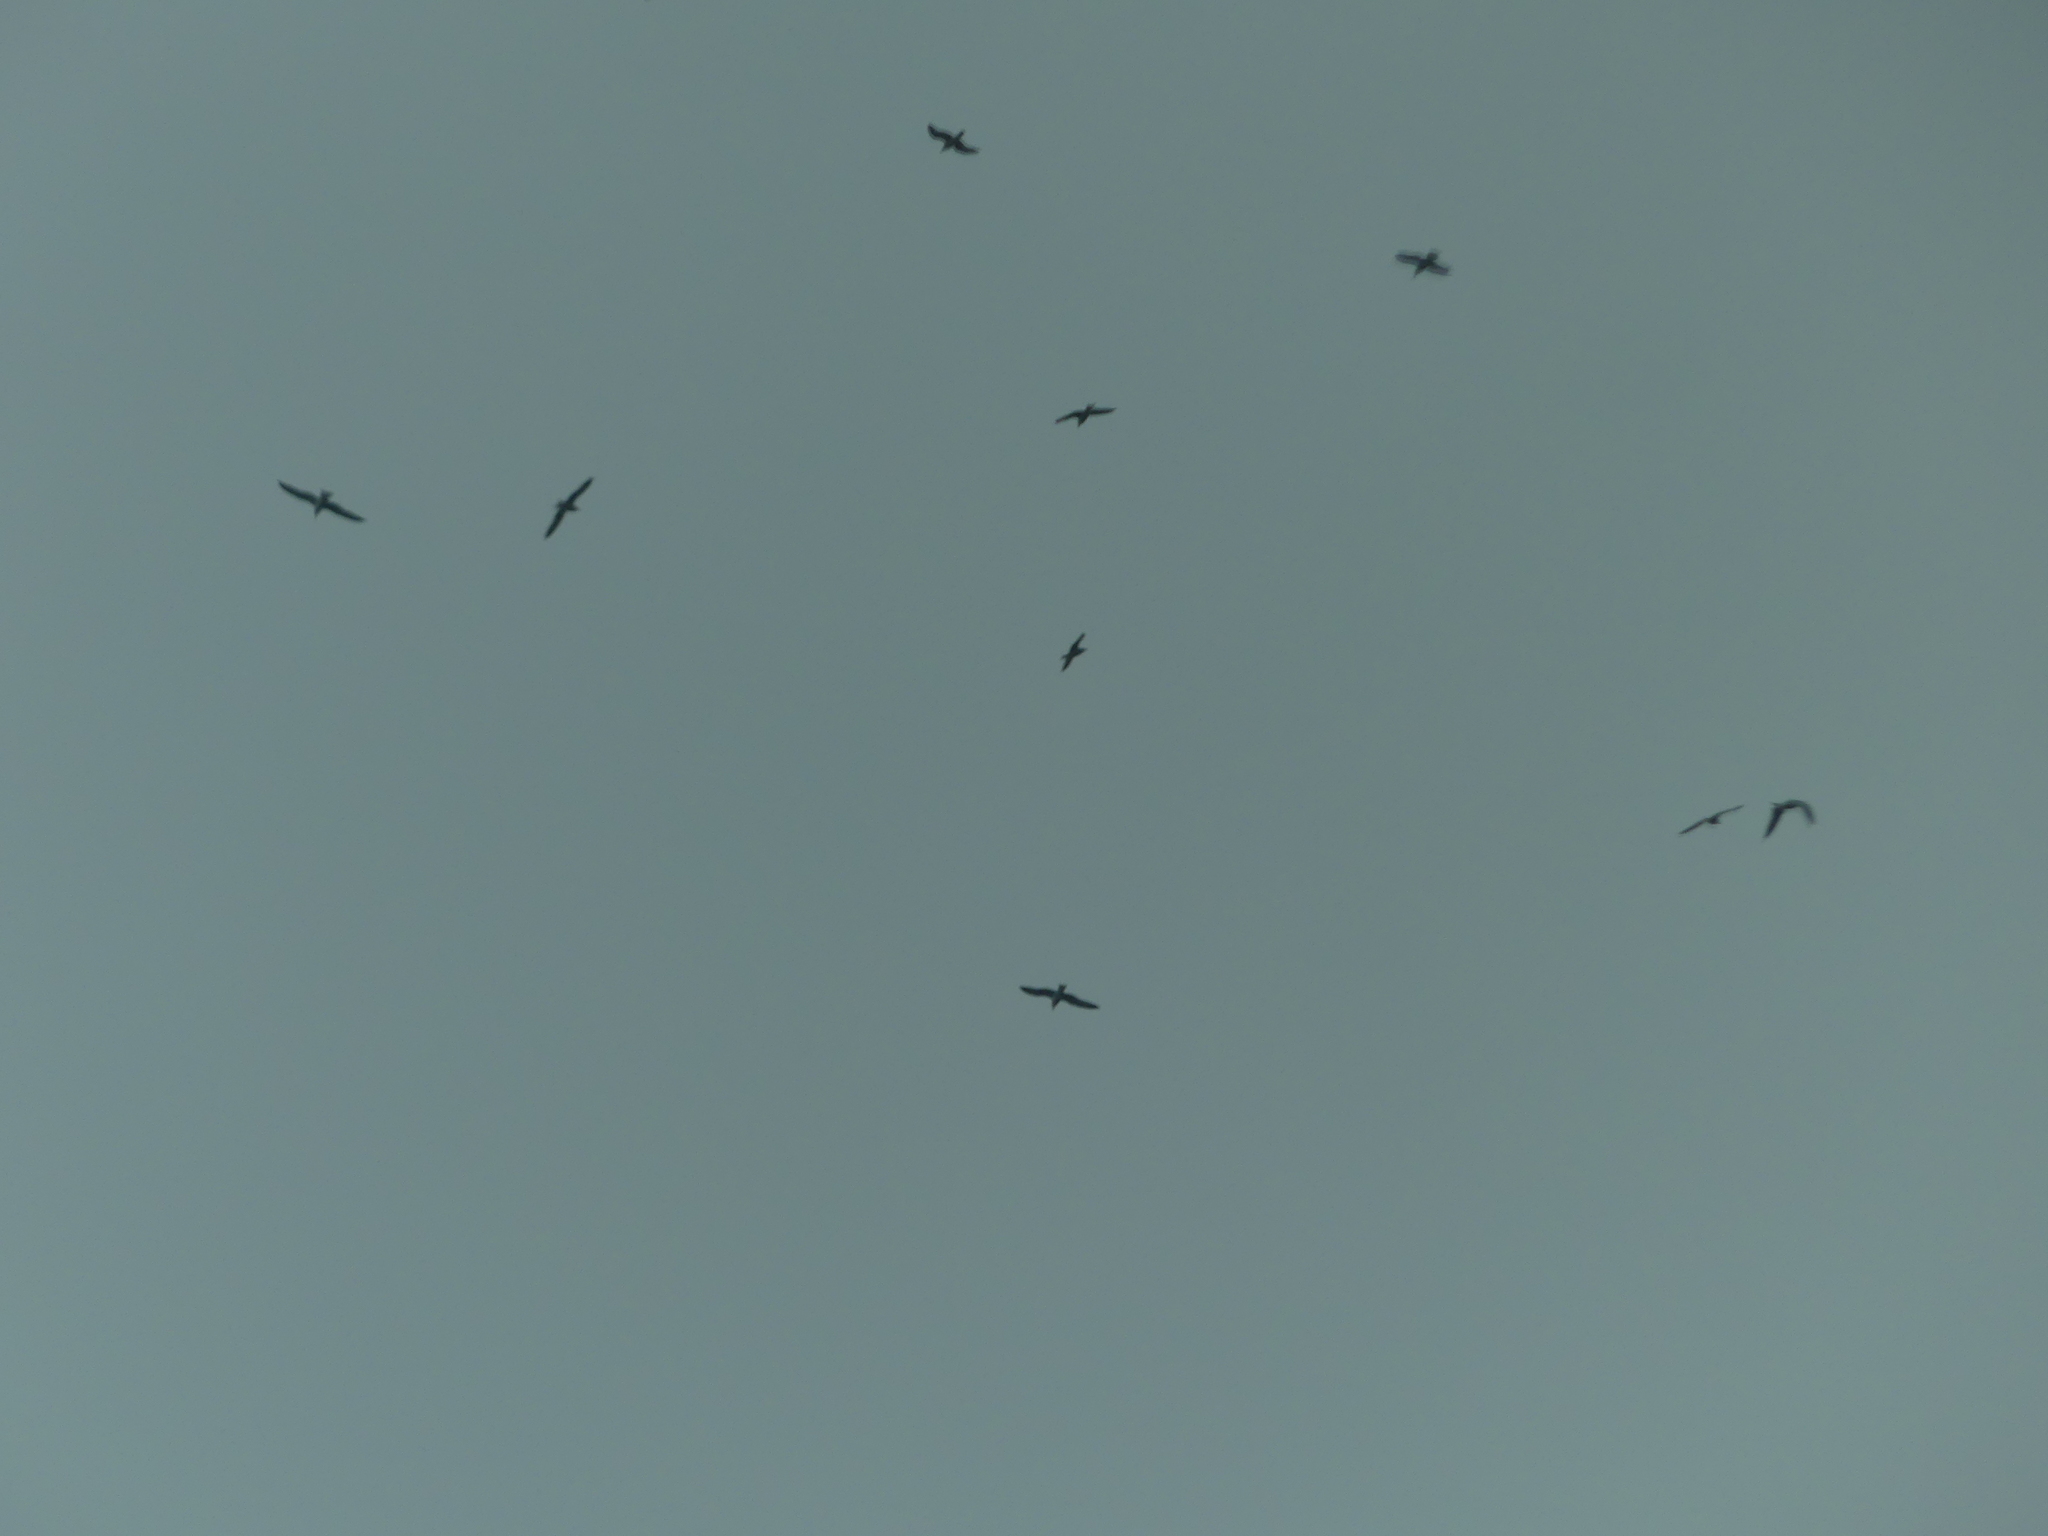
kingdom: Animalia
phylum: Chordata
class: Aves
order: Charadriiformes
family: Laridae
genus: Larus
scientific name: Larus delawarensis
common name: Ring-billed gull
